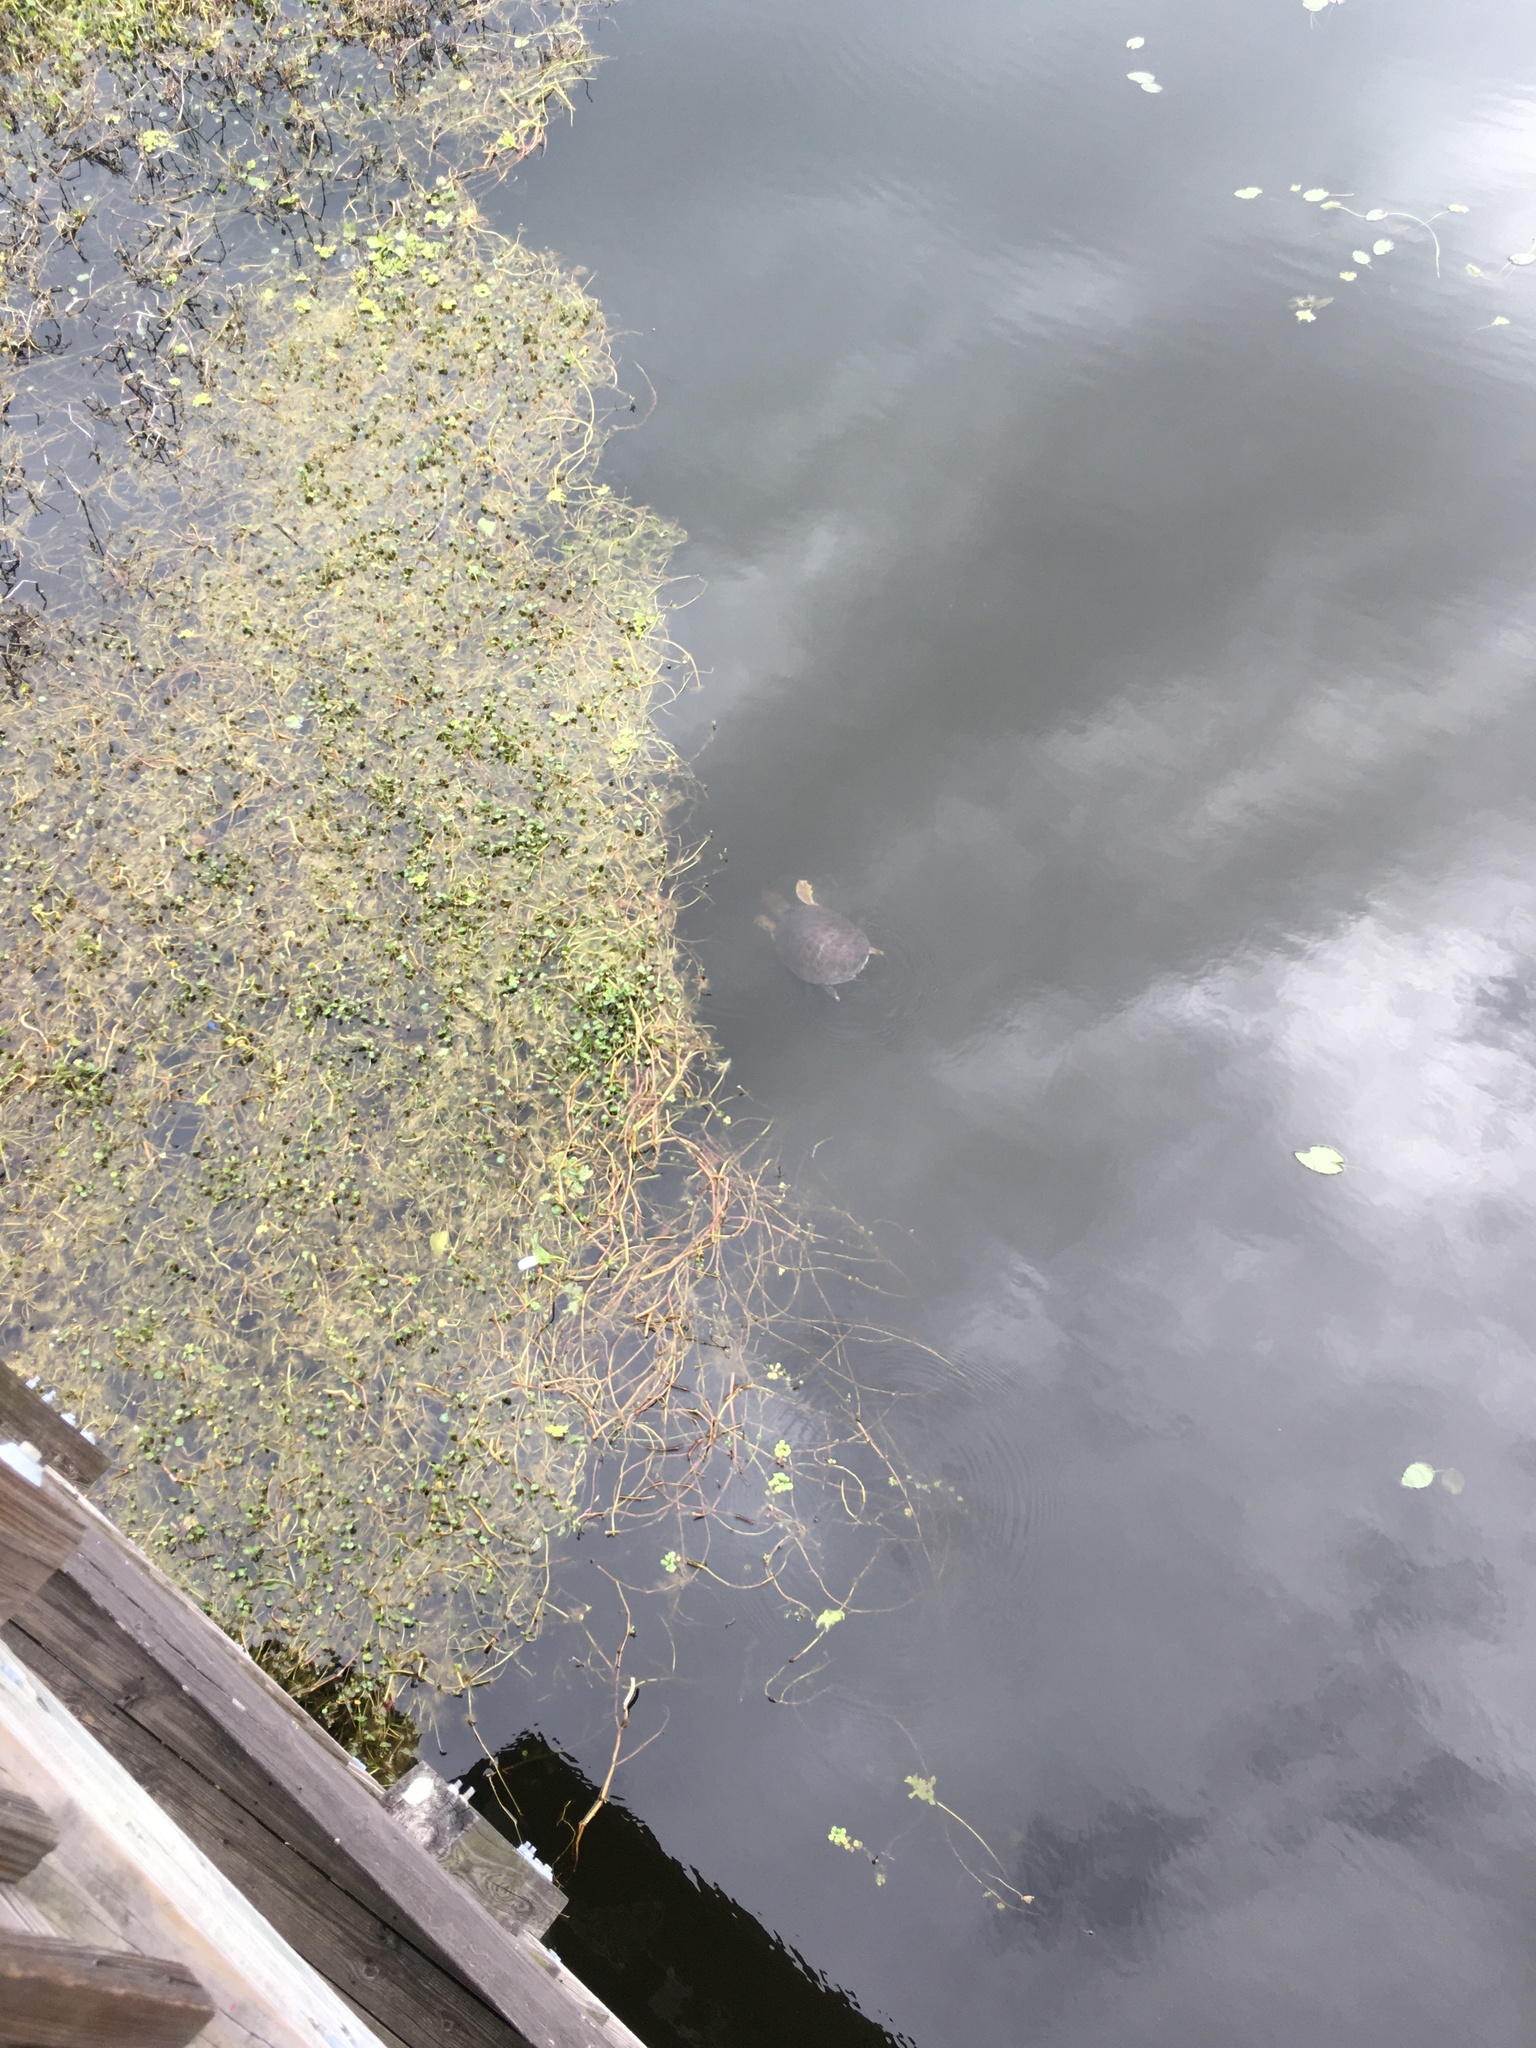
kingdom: Animalia
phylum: Chordata
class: Testudines
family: Trionychidae
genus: Apalone
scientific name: Apalone ferox
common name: Florida softshell turtle
